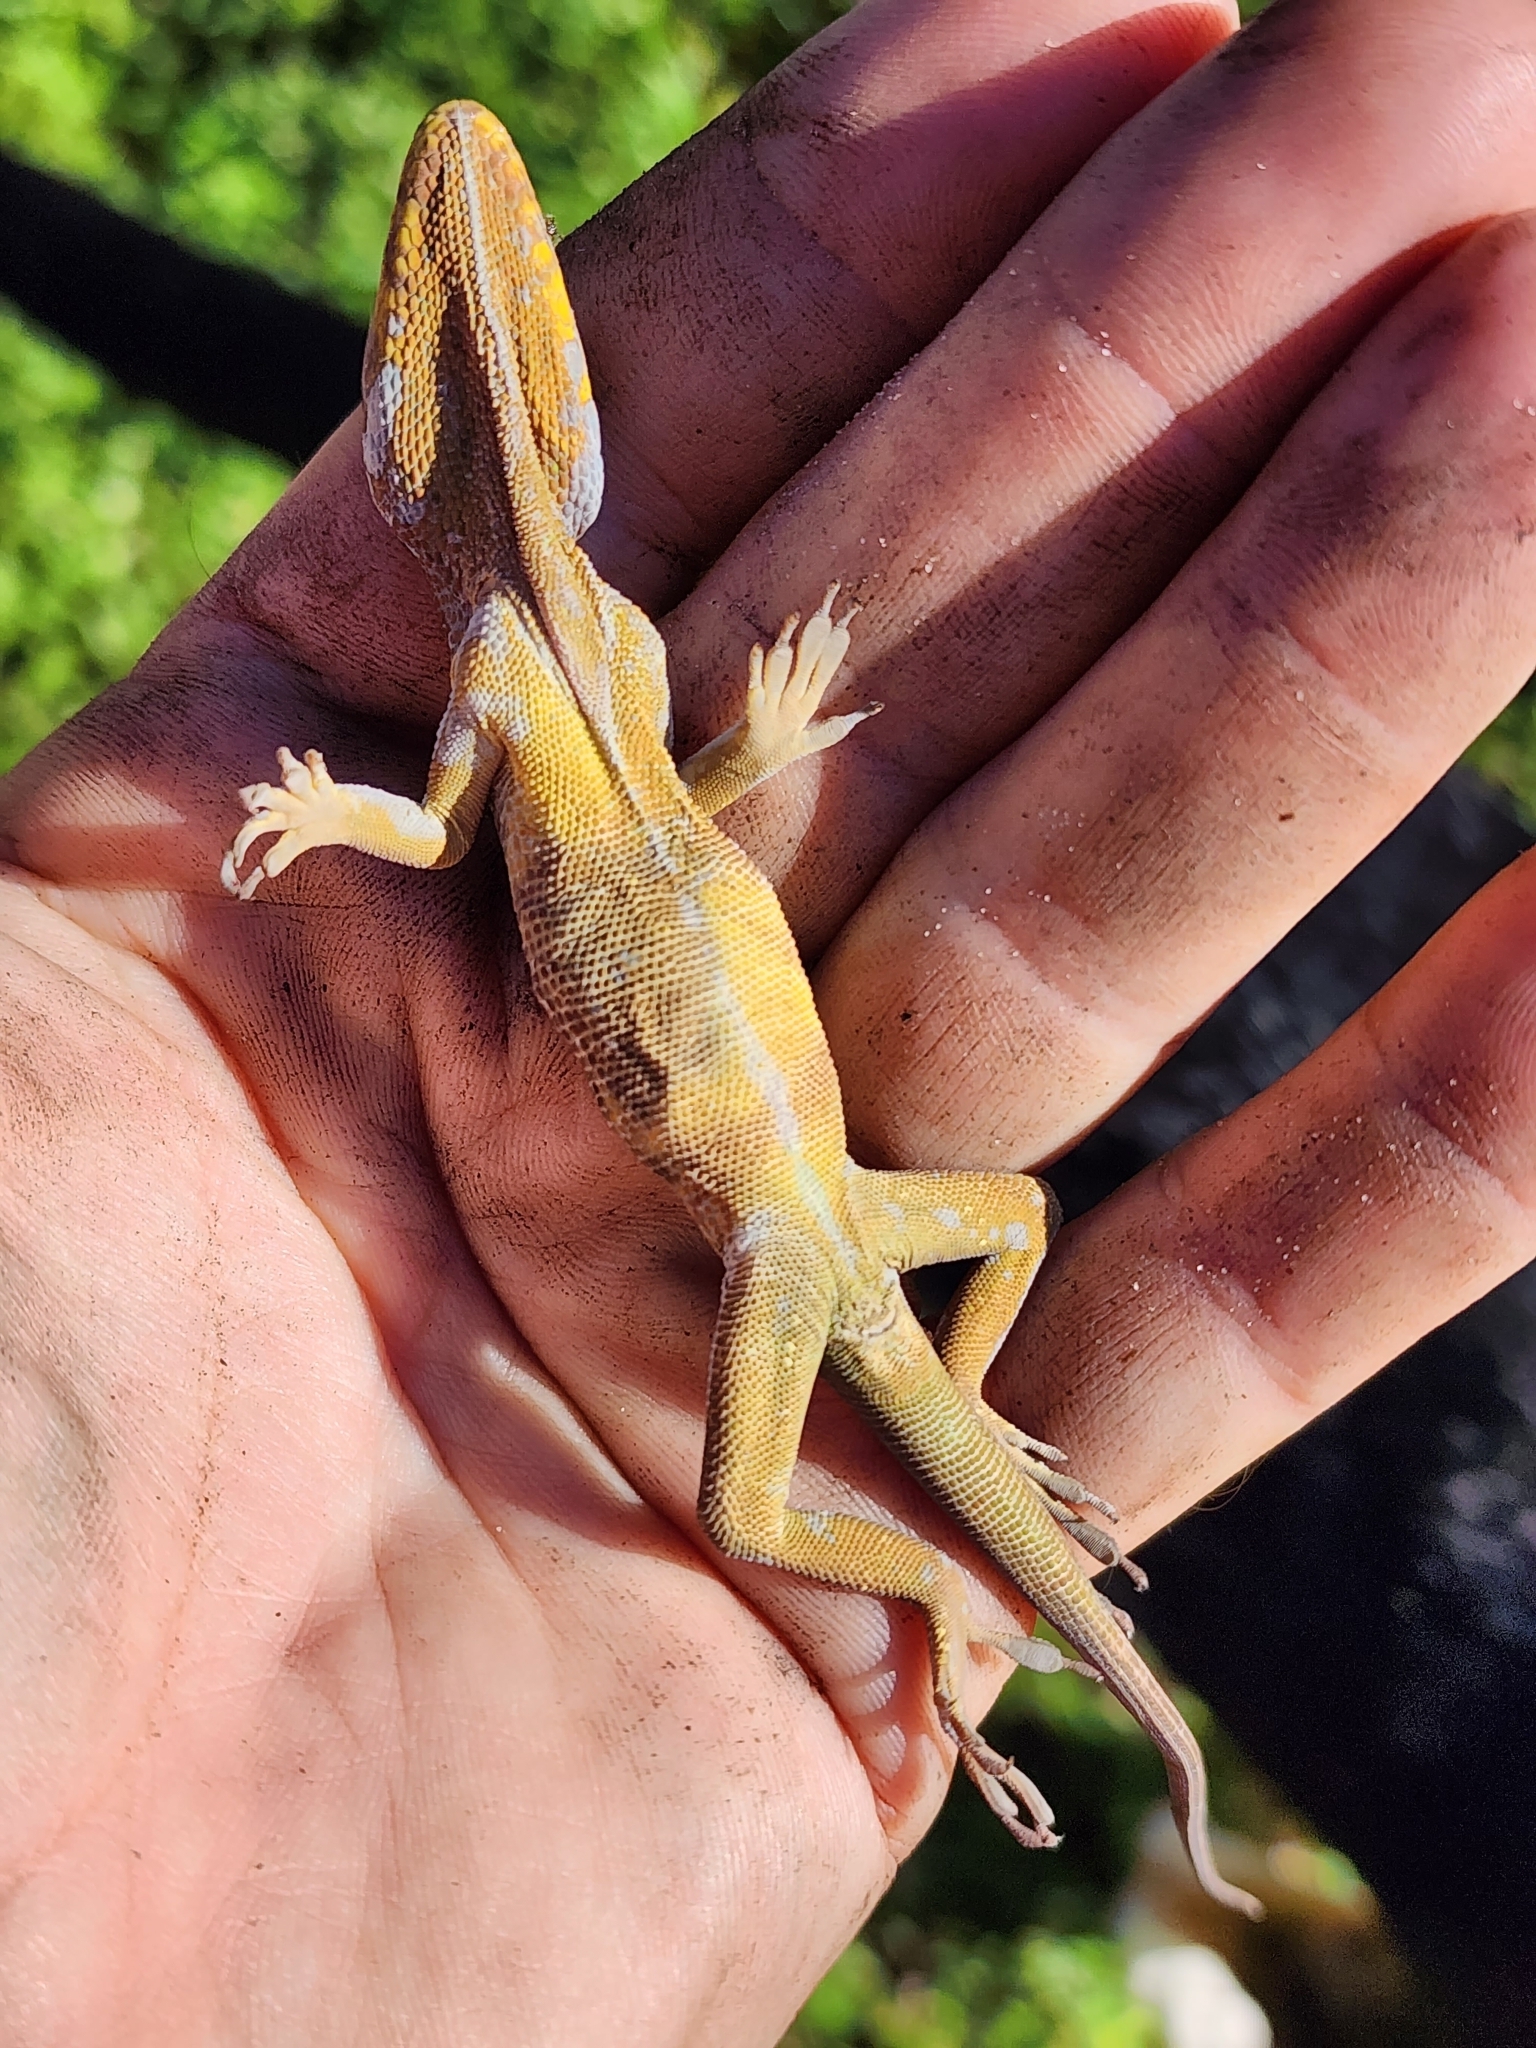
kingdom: Animalia
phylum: Chordata
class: Squamata
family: Dactyloidae
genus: Anolis
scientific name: Anolis equestris
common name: Knight anole
